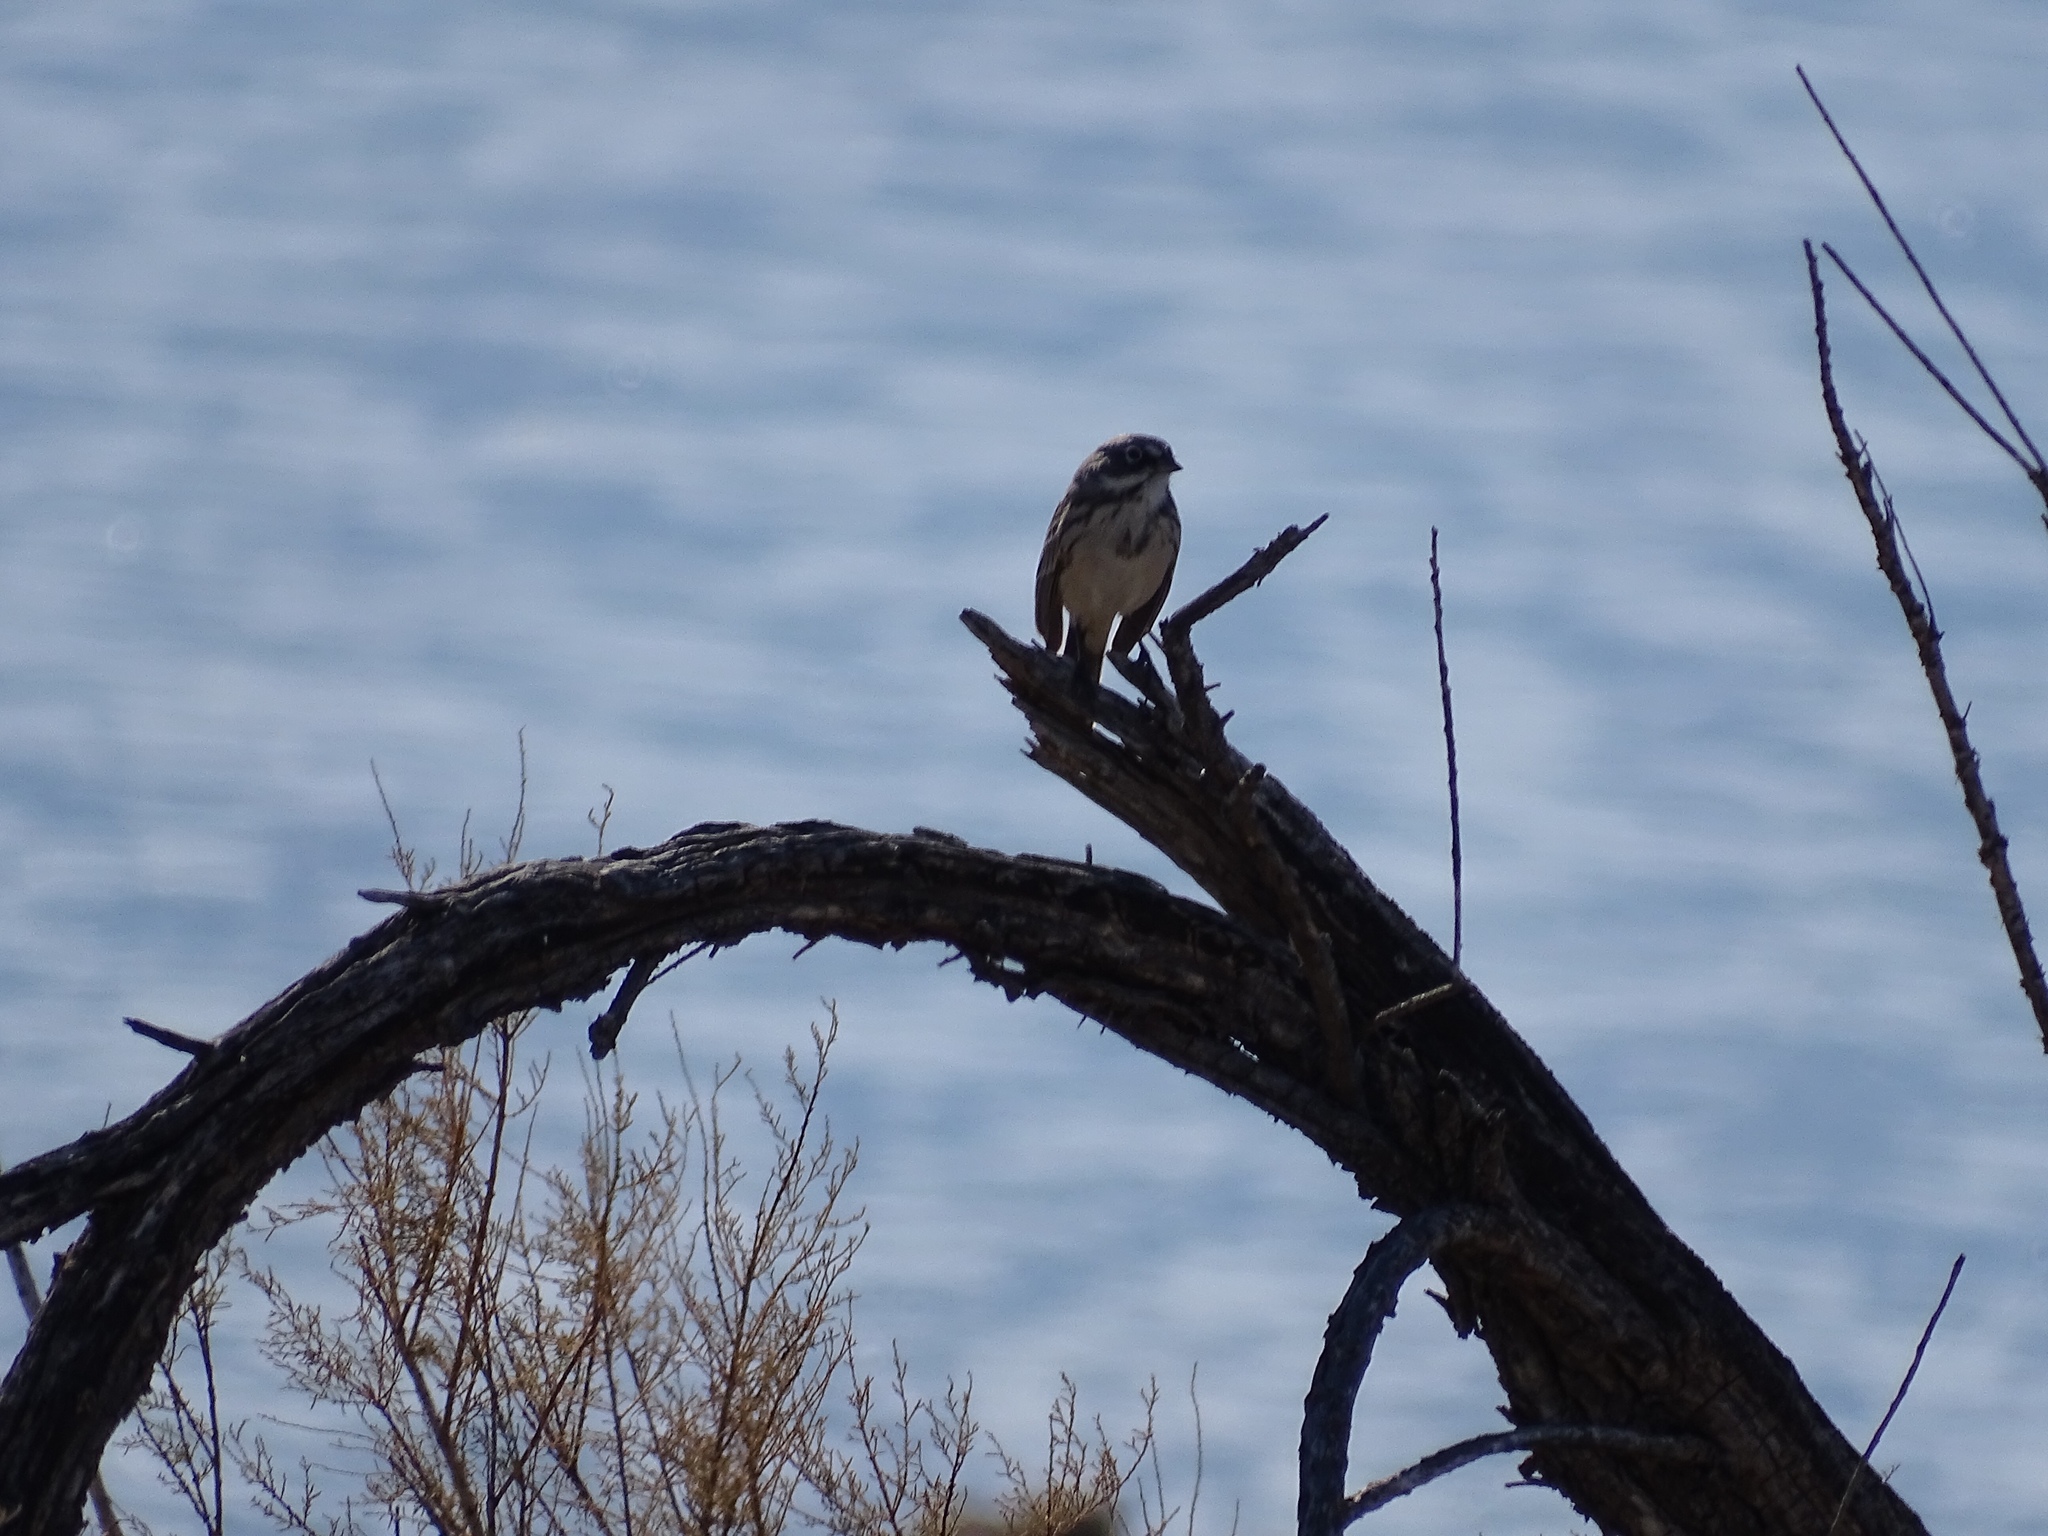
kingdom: Animalia
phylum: Chordata
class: Aves
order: Passeriformes
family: Passerellidae
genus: Artemisiospiza
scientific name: Artemisiospiza nevadensis
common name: Sagebrush sparrow
